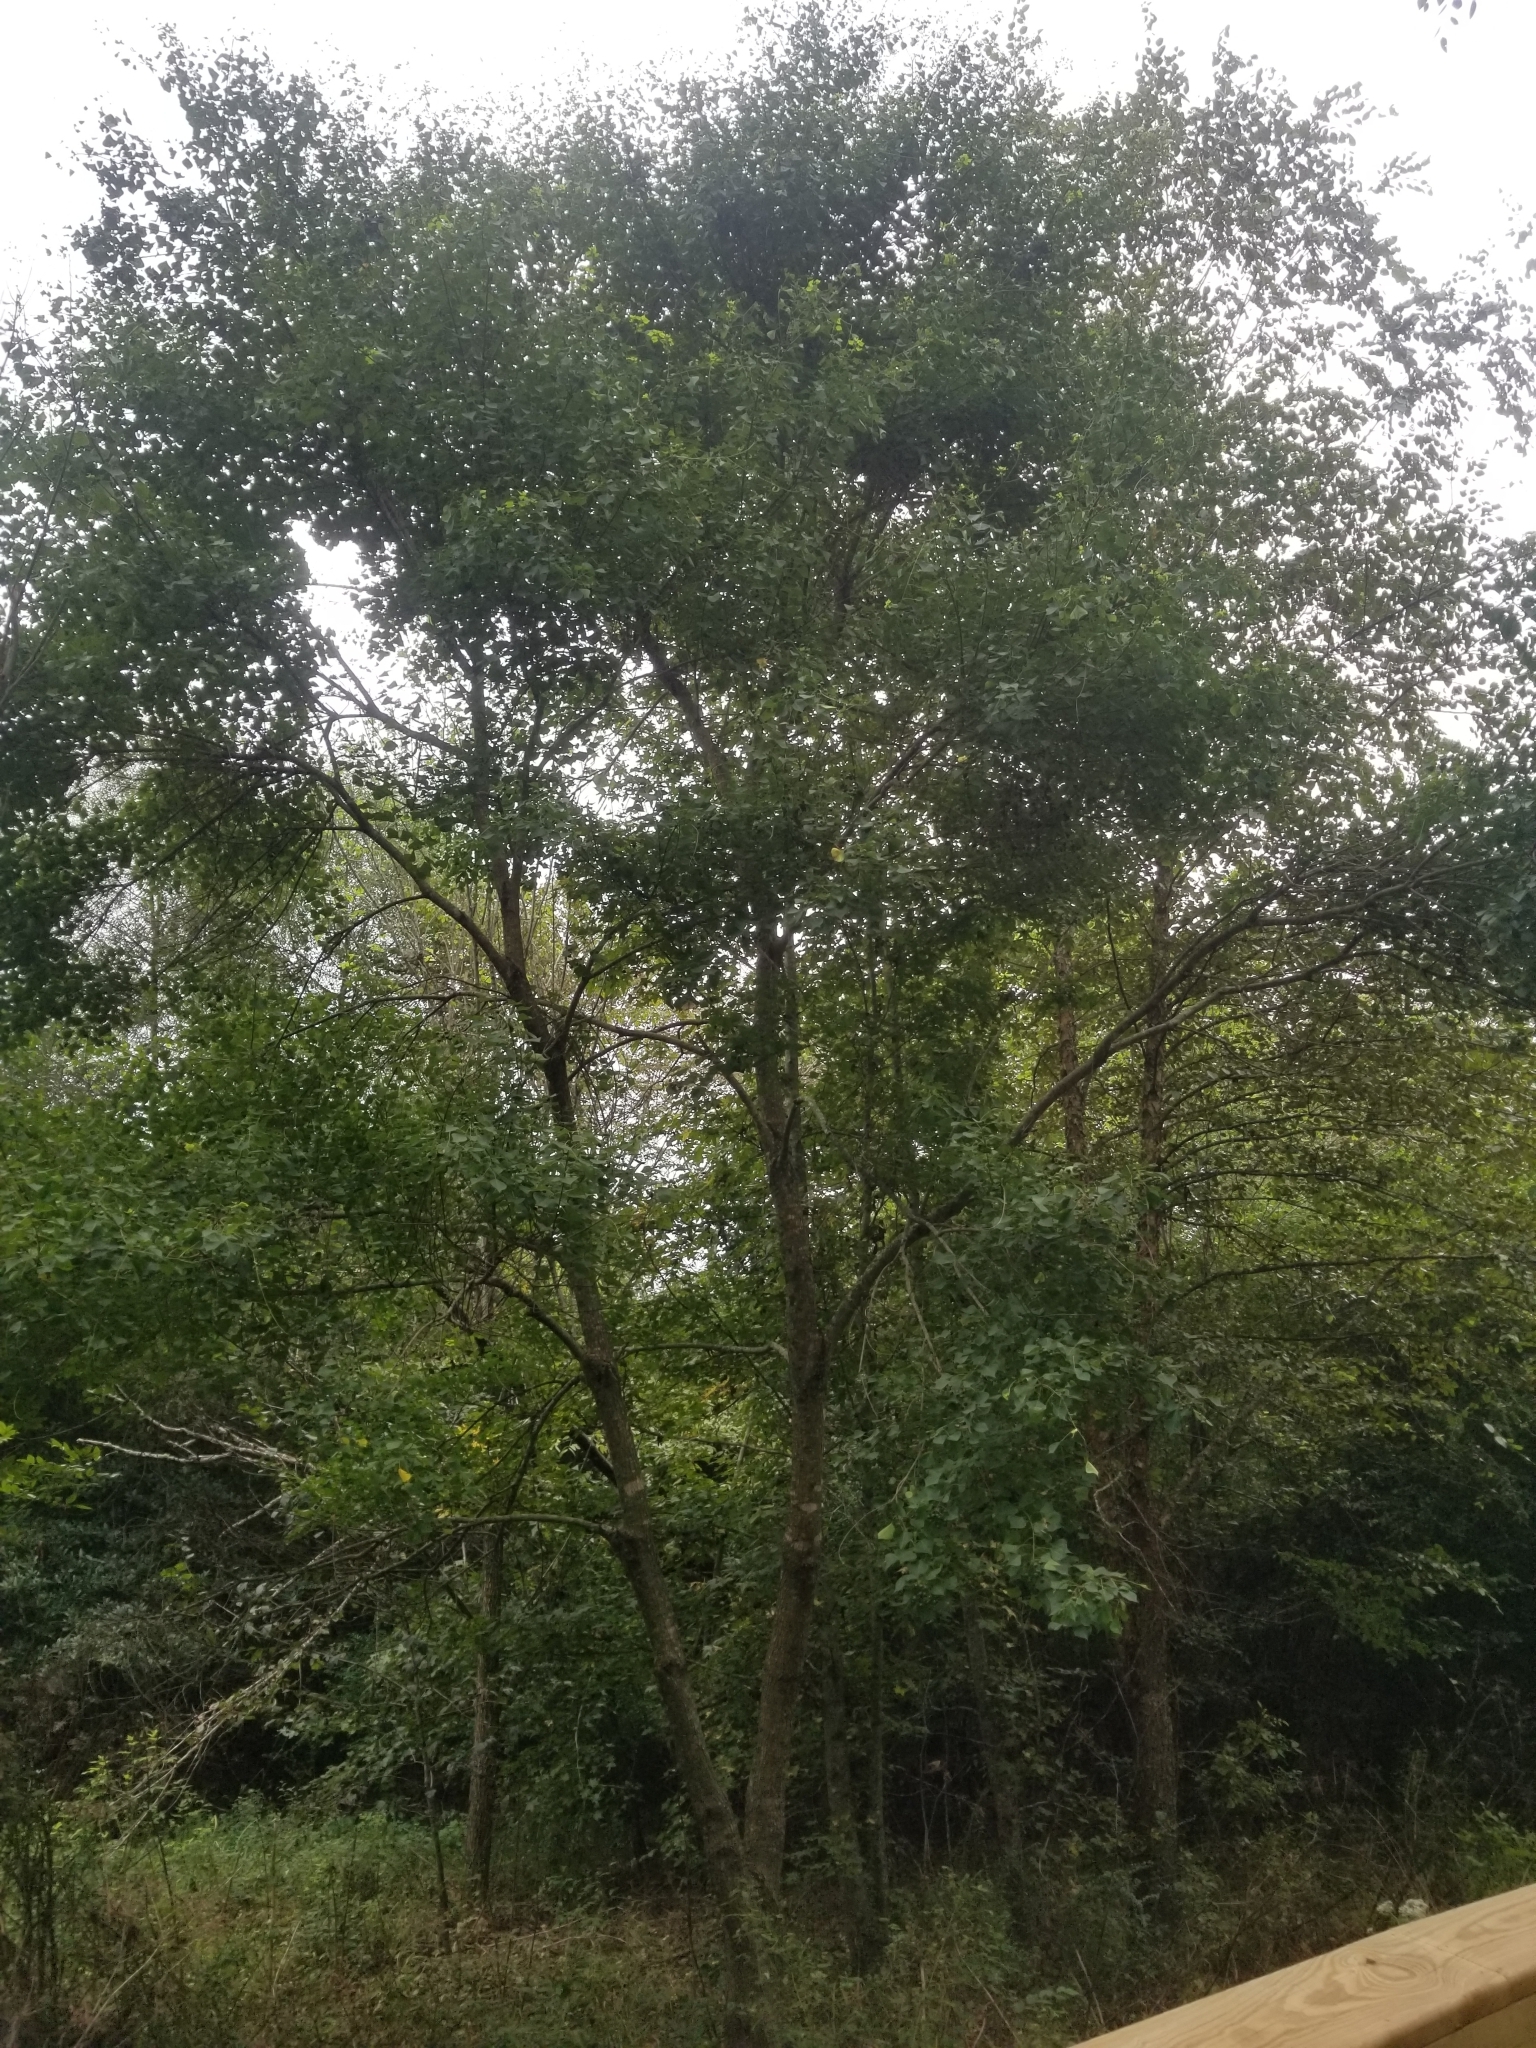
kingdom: Plantae
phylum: Tracheophyta
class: Magnoliopsida
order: Malpighiales
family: Euphorbiaceae
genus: Triadica
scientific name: Triadica sebifera
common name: Chinese tallow
